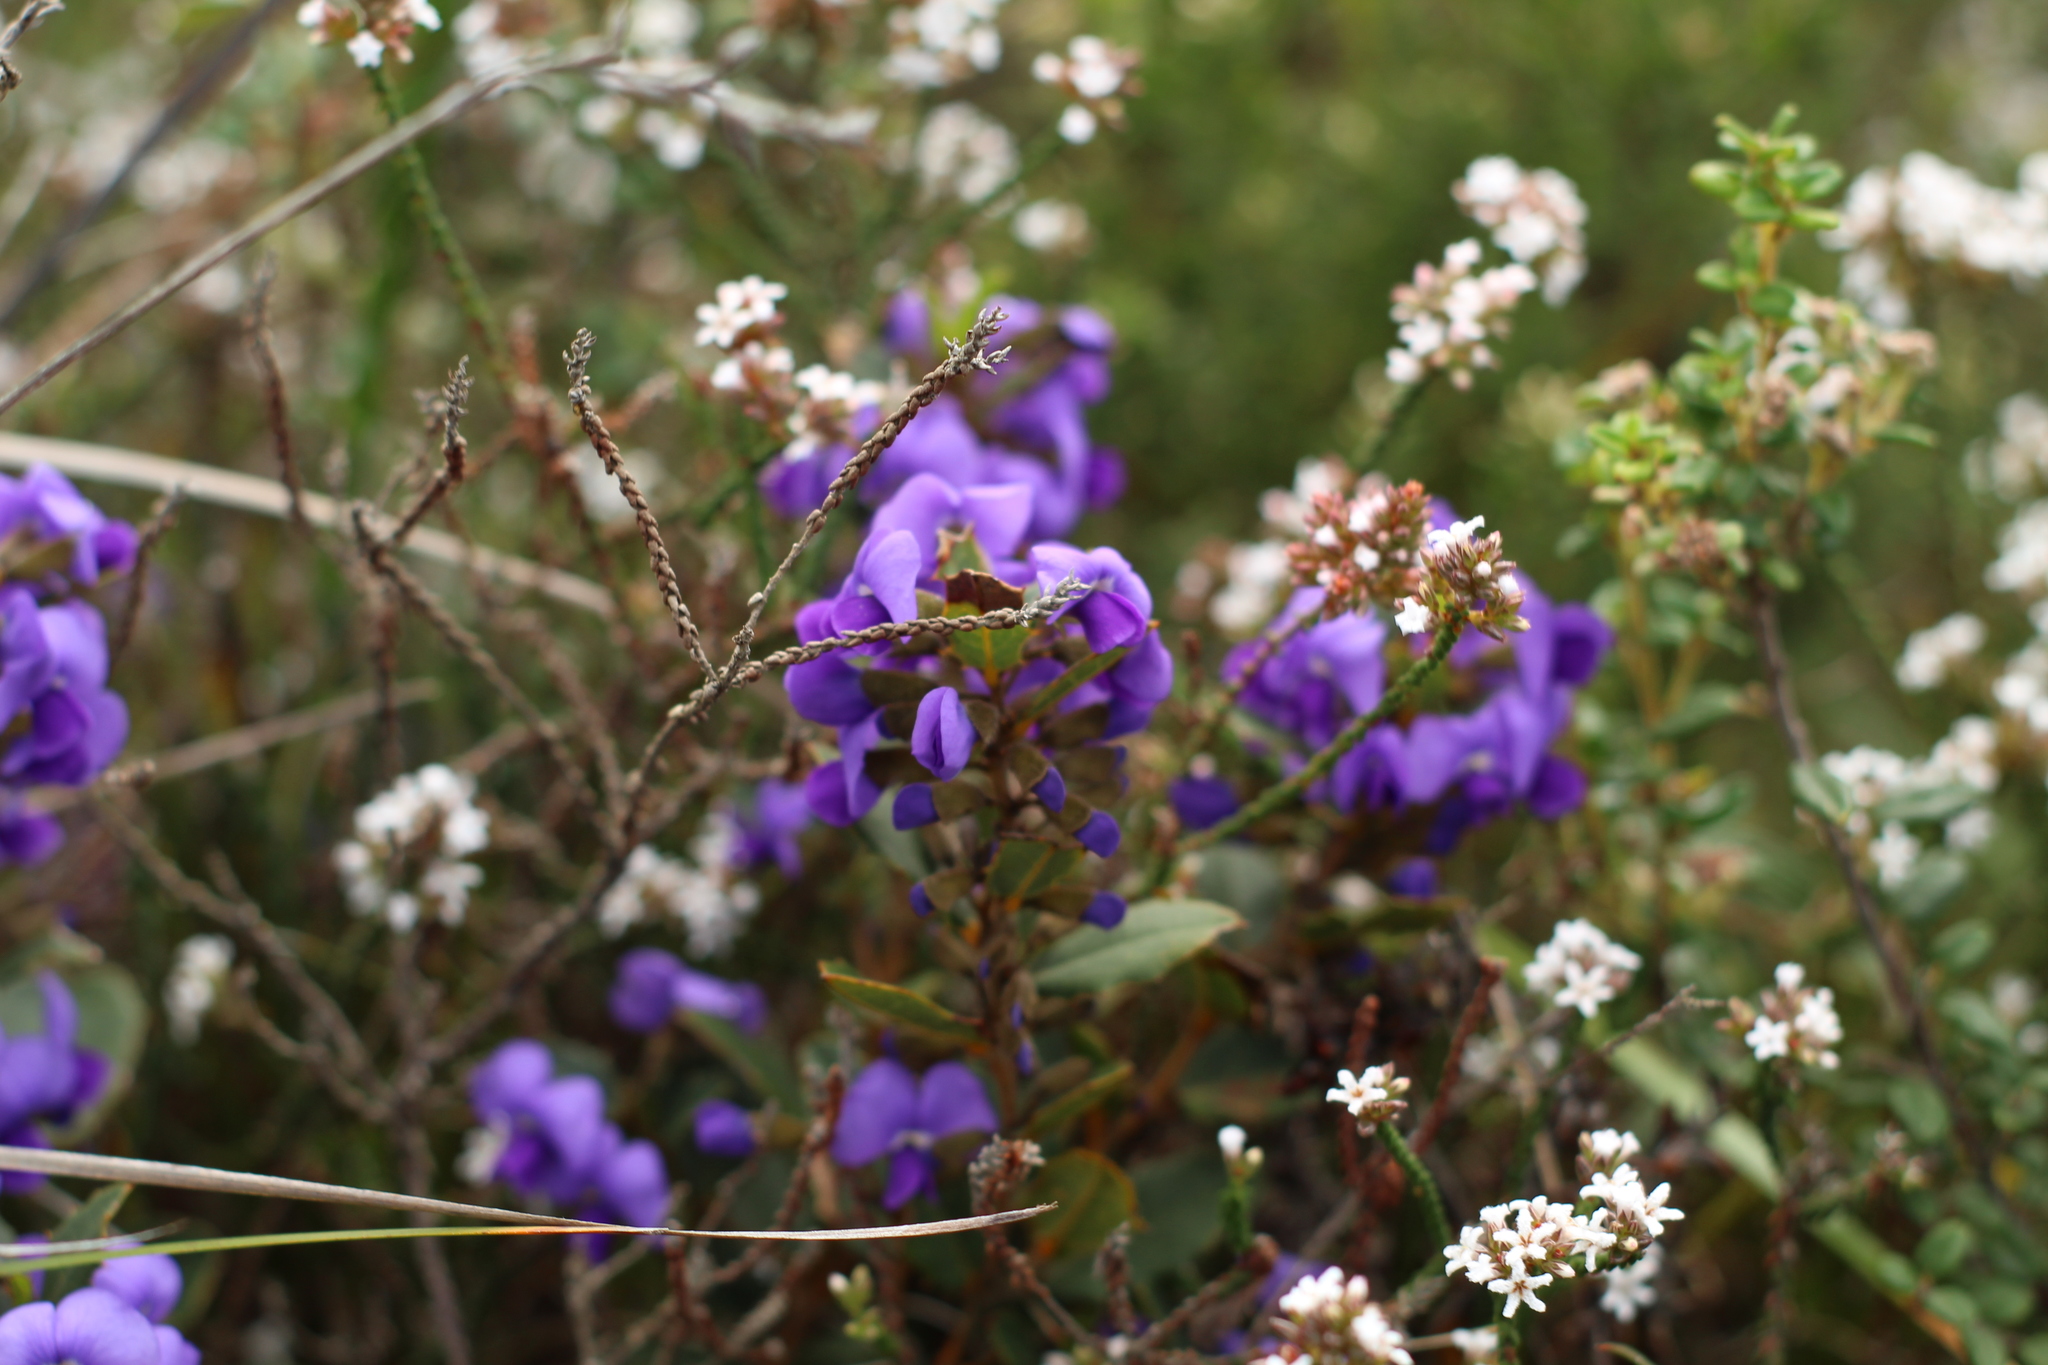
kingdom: Plantae
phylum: Tracheophyta
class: Magnoliopsida
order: Fabales
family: Fabaceae
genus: Hovea
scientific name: Hovea chorizemifolia
